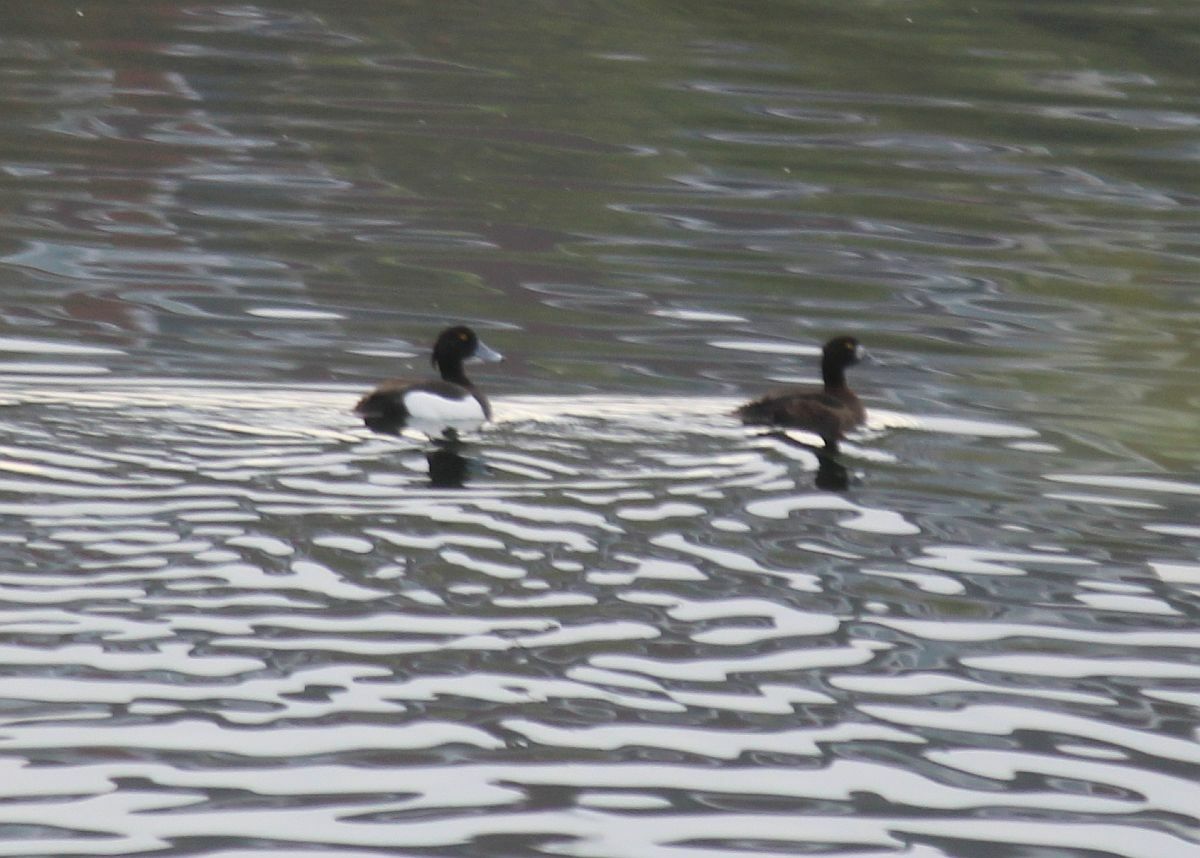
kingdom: Animalia
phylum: Chordata
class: Aves
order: Anseriformes
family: Anatidae
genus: Aythya
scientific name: Aythya fuligula
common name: Tufted duck
